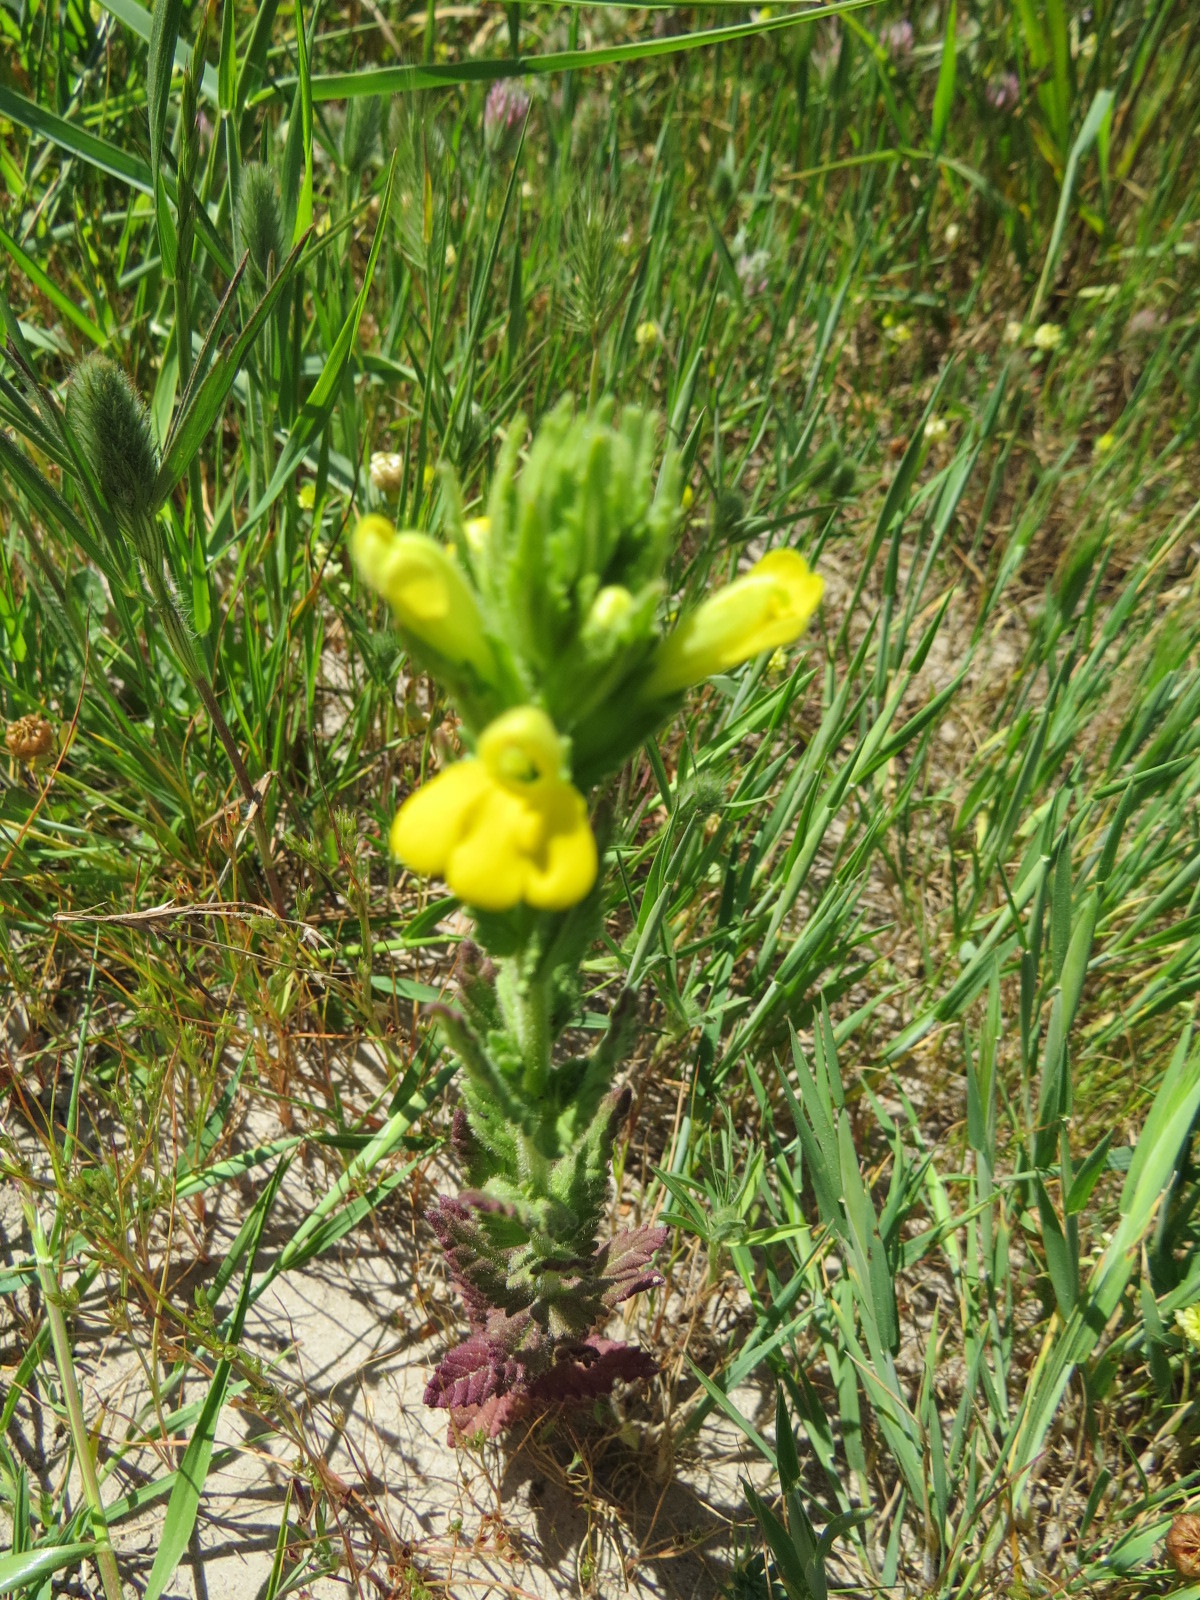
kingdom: Plantae
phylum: Tracheophyta
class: Magnoliopsida
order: Lamiales
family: Orobanchaceae
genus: Bellardia
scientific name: Bellardia viscosa
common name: Sticky parentucellia
